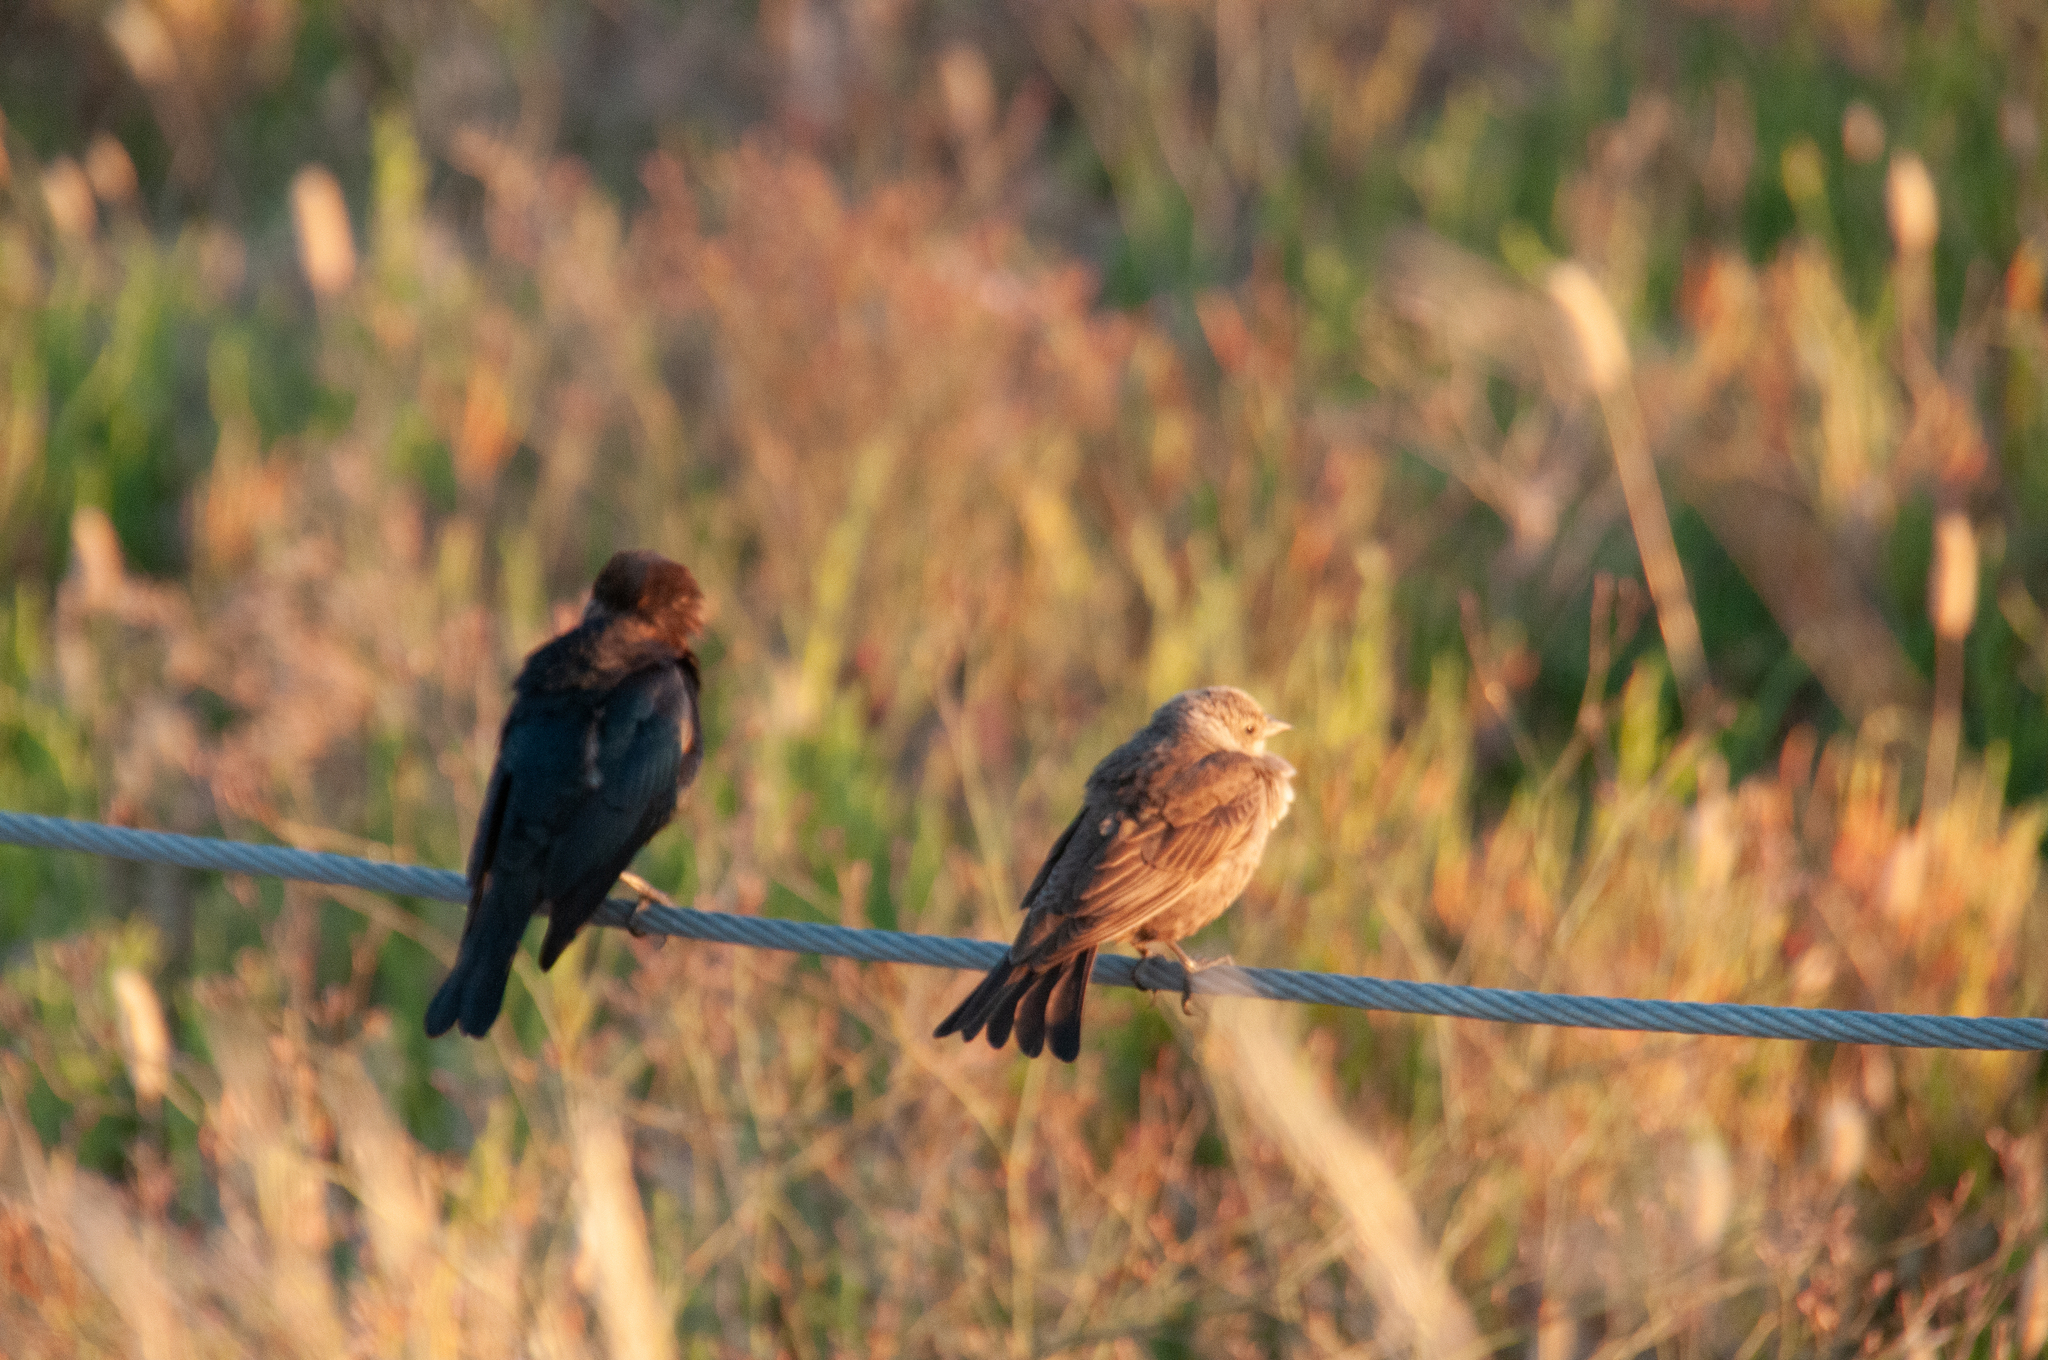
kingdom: Animalia
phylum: Chordata
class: Aves
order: Passeriformes
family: Icteridae
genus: Molothrus
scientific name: Molothrus ater
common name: Brown-headed cowbird
